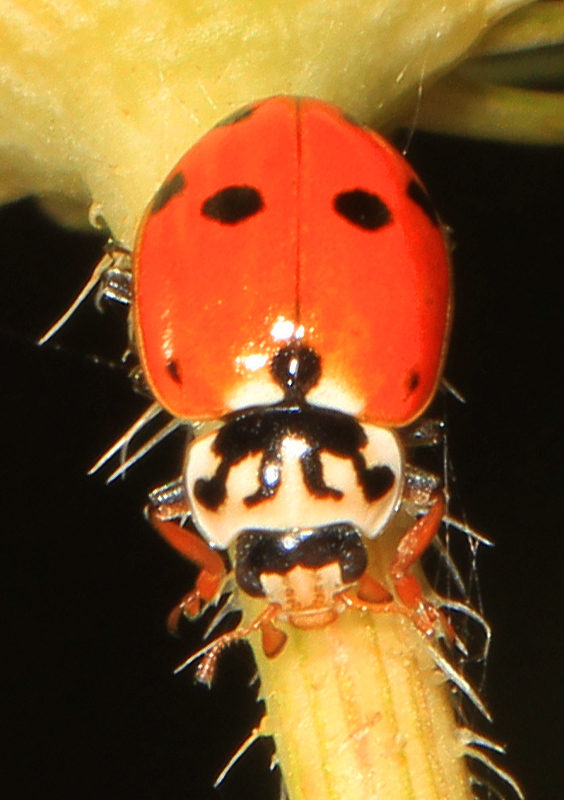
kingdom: Animalia
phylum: Arthropoda
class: Insecta
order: Coleoptera
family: Coccinellidae
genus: Hippodamia
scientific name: Hippodamia variegata
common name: Ladybird beetle
